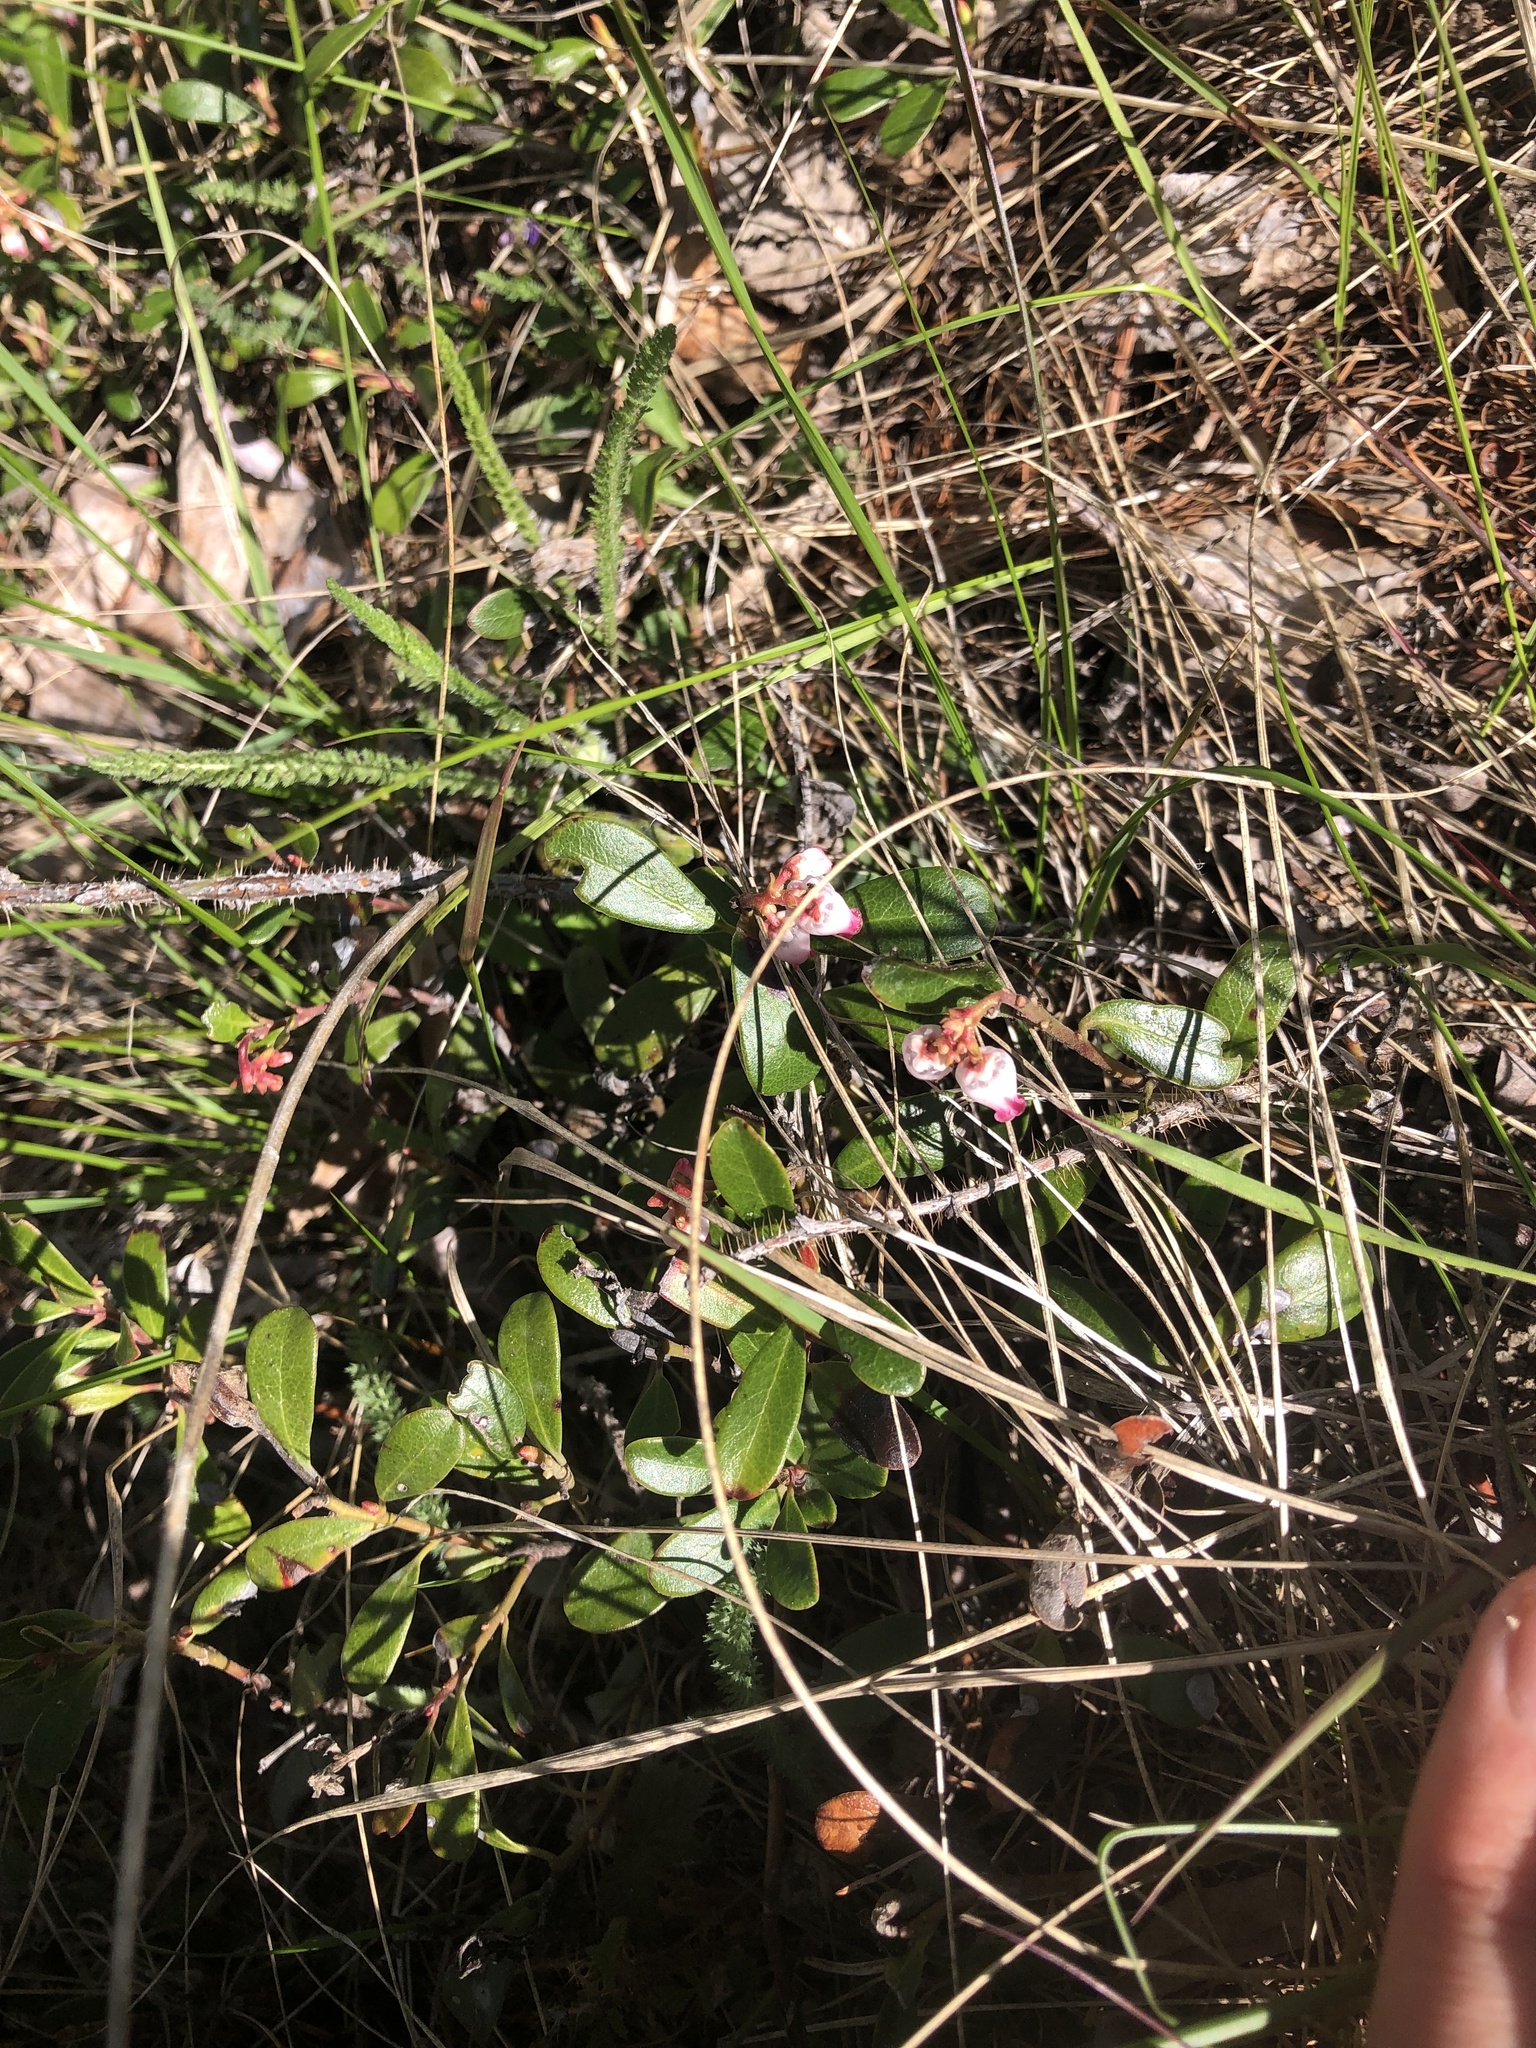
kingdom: Plantae
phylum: Tracheophyta
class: Magnoliopsida
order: Ericales
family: Ericaceae
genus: Arctostaphylos
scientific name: Arctostaphylos uva-ursi
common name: Bearberry
